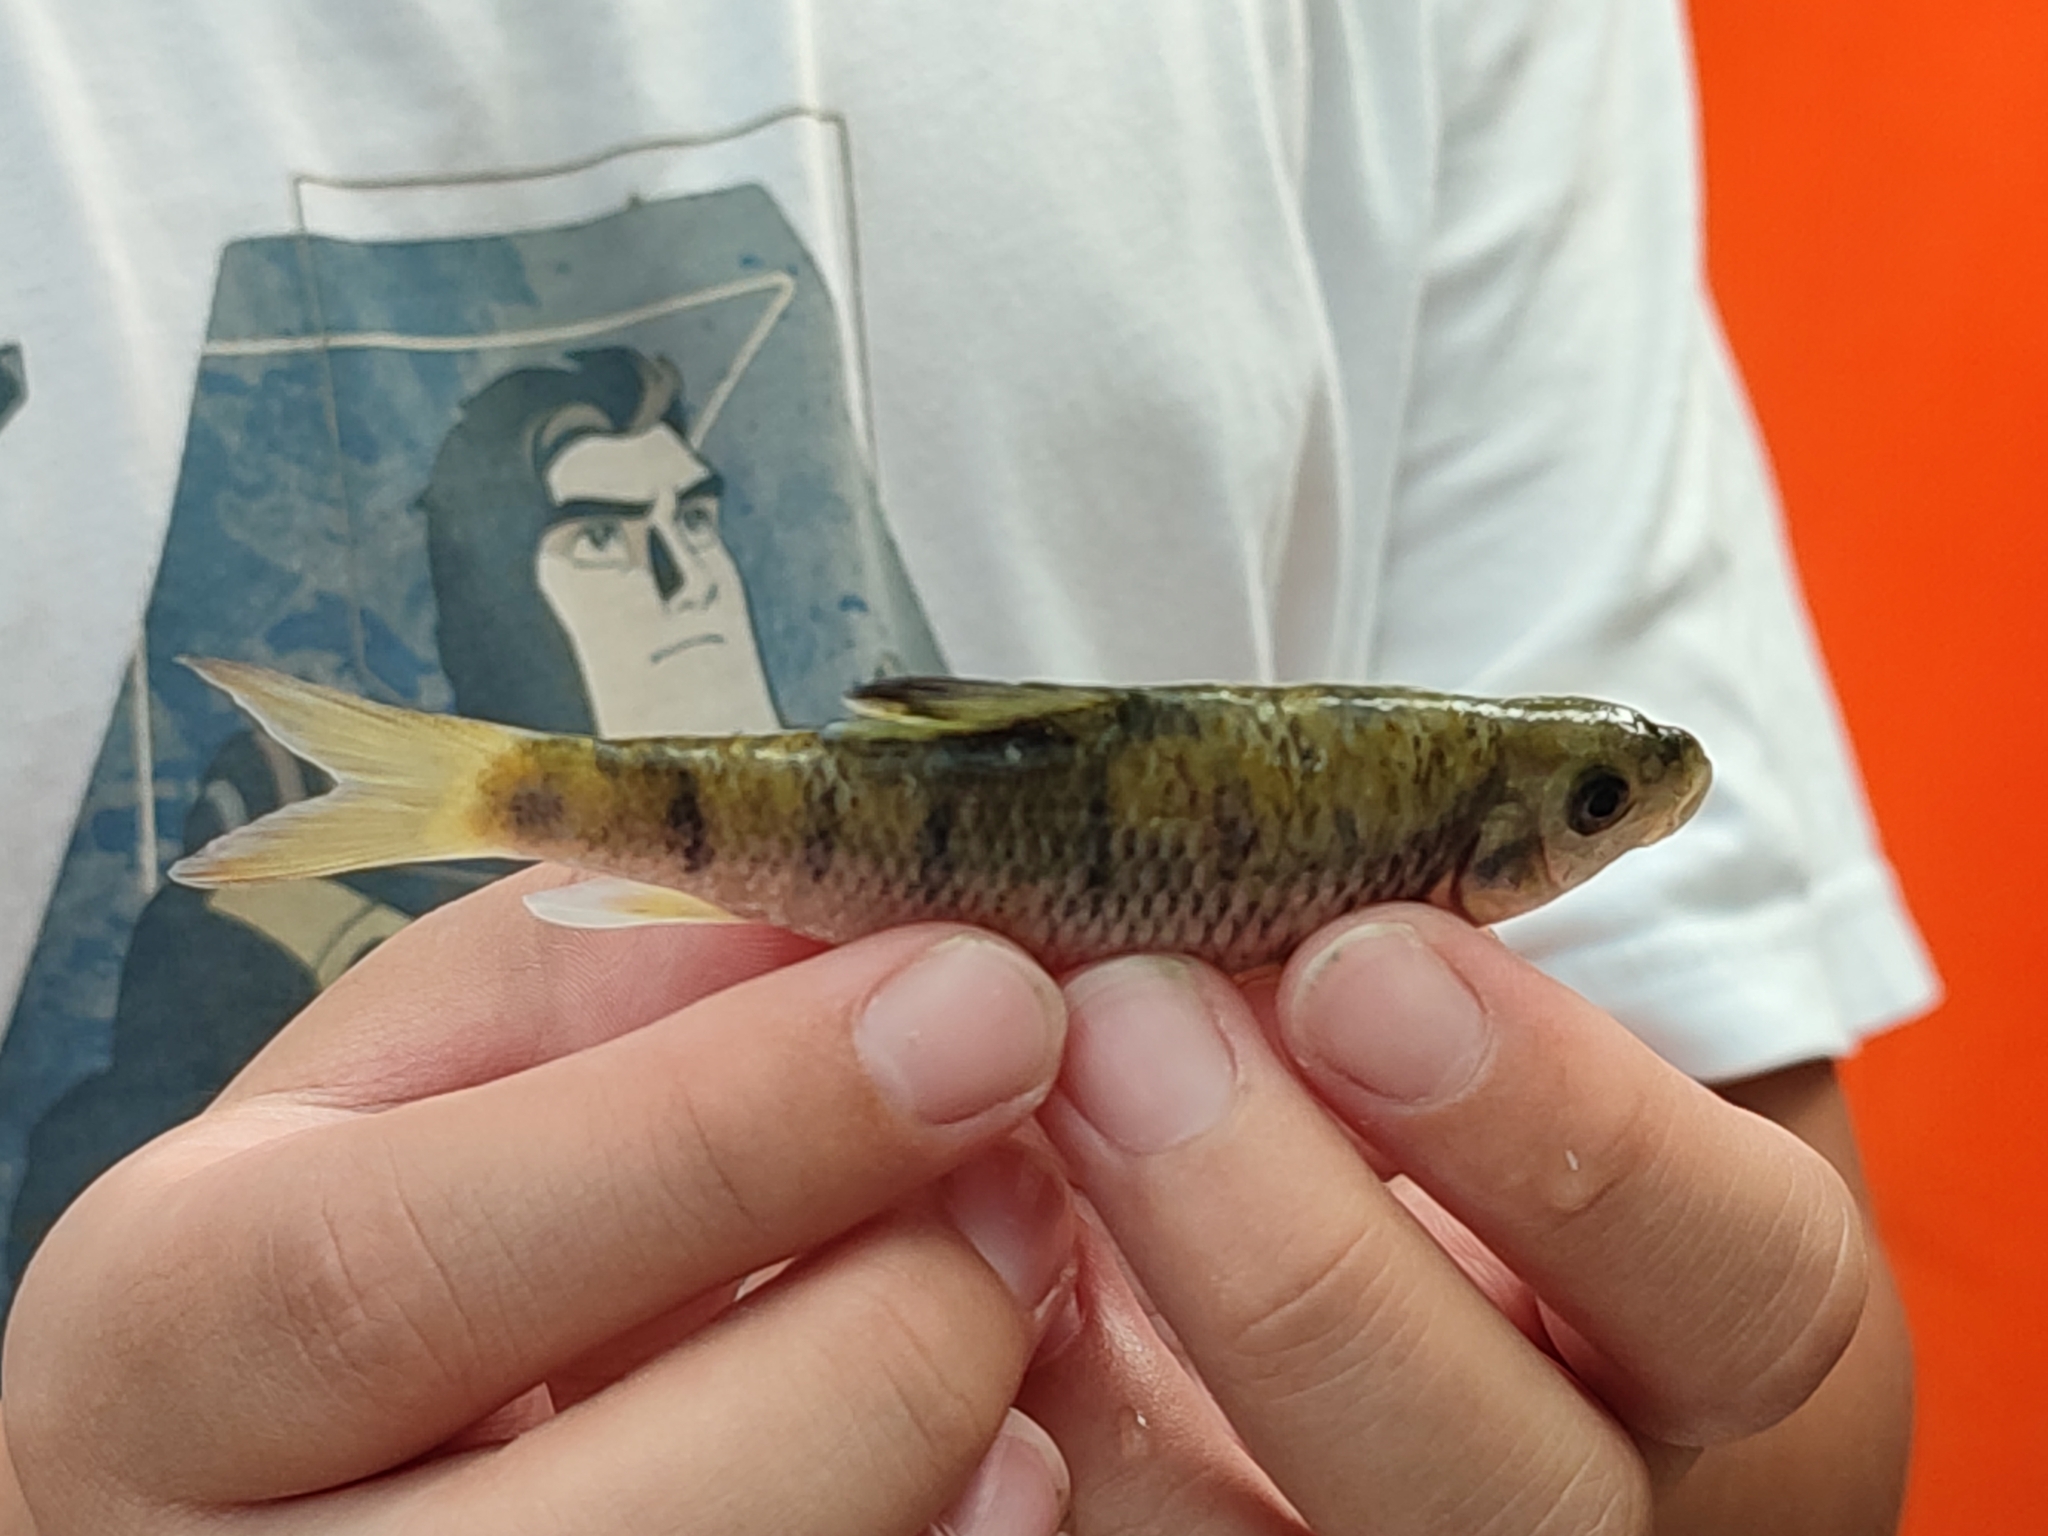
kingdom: Animalia
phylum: Chordata
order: Cypriniformes
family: Cyprinidae
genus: Acrossocheilus
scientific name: Acrossocheilus paradoxus
